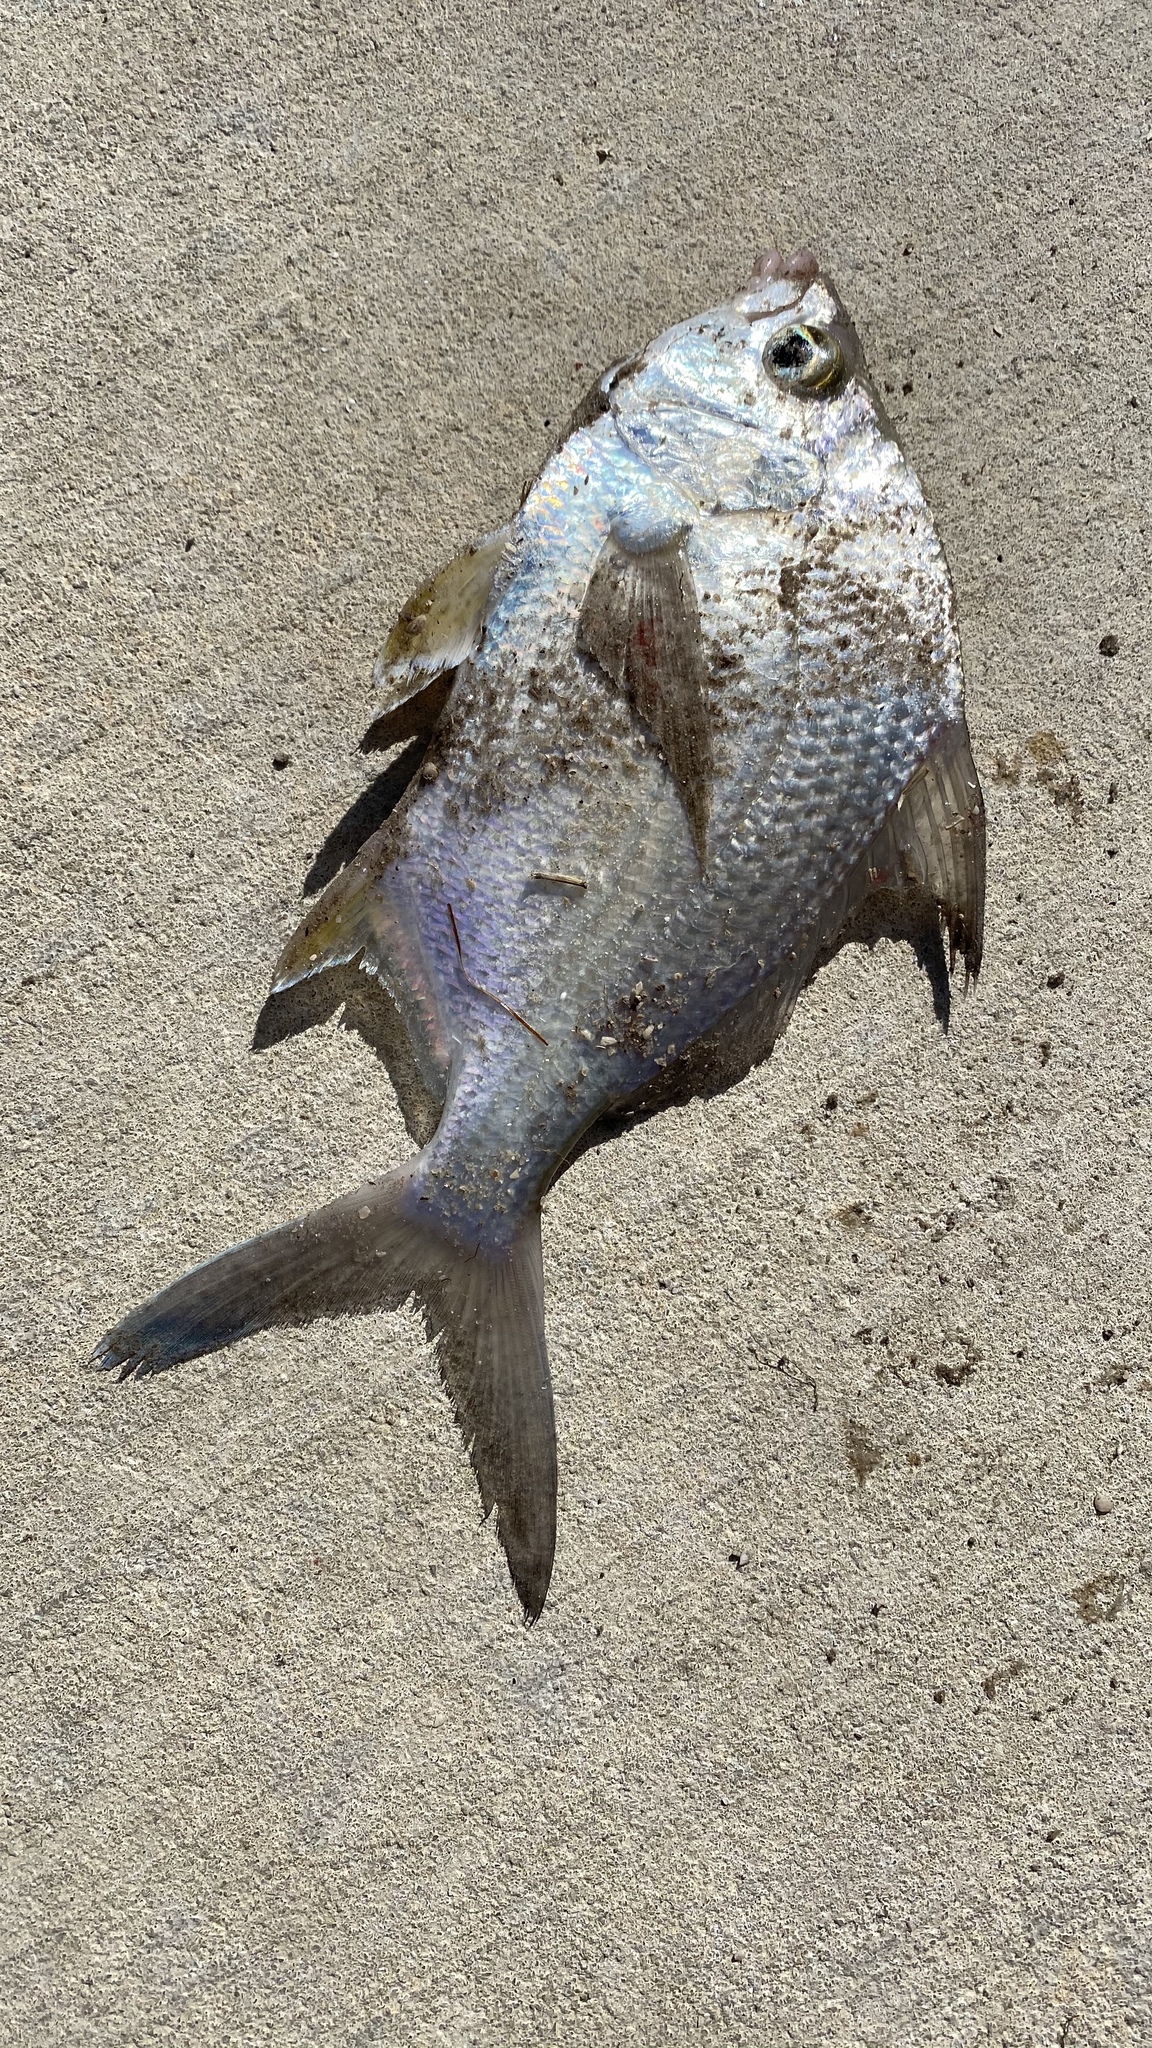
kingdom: Animalia
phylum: Chordata
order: Perciformes
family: Gerreidae
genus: Diapterus
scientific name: Diapterus auratus
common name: Broad shad
